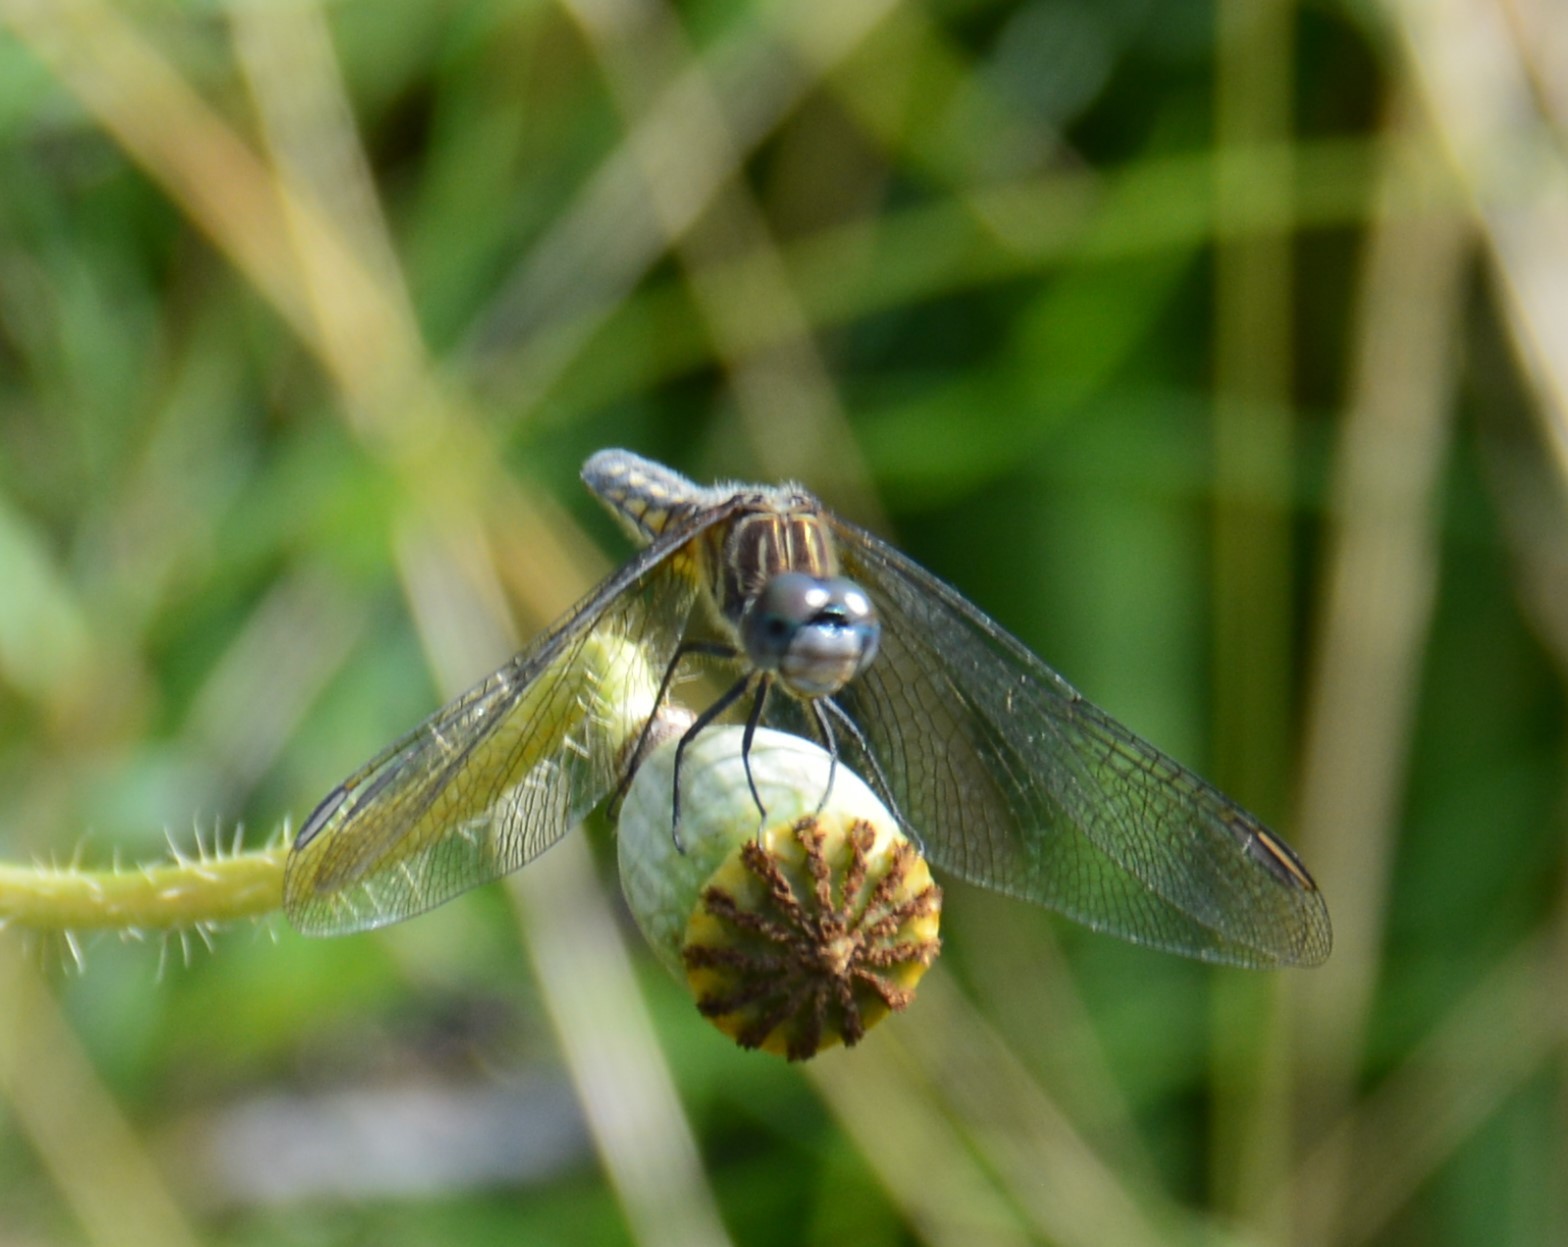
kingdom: Animalia
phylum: Arthropoda
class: Insecta
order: Odonata
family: Libellulidae
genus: Pachydiplax
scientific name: Pachydiplax longipennis
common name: Blue dasher
